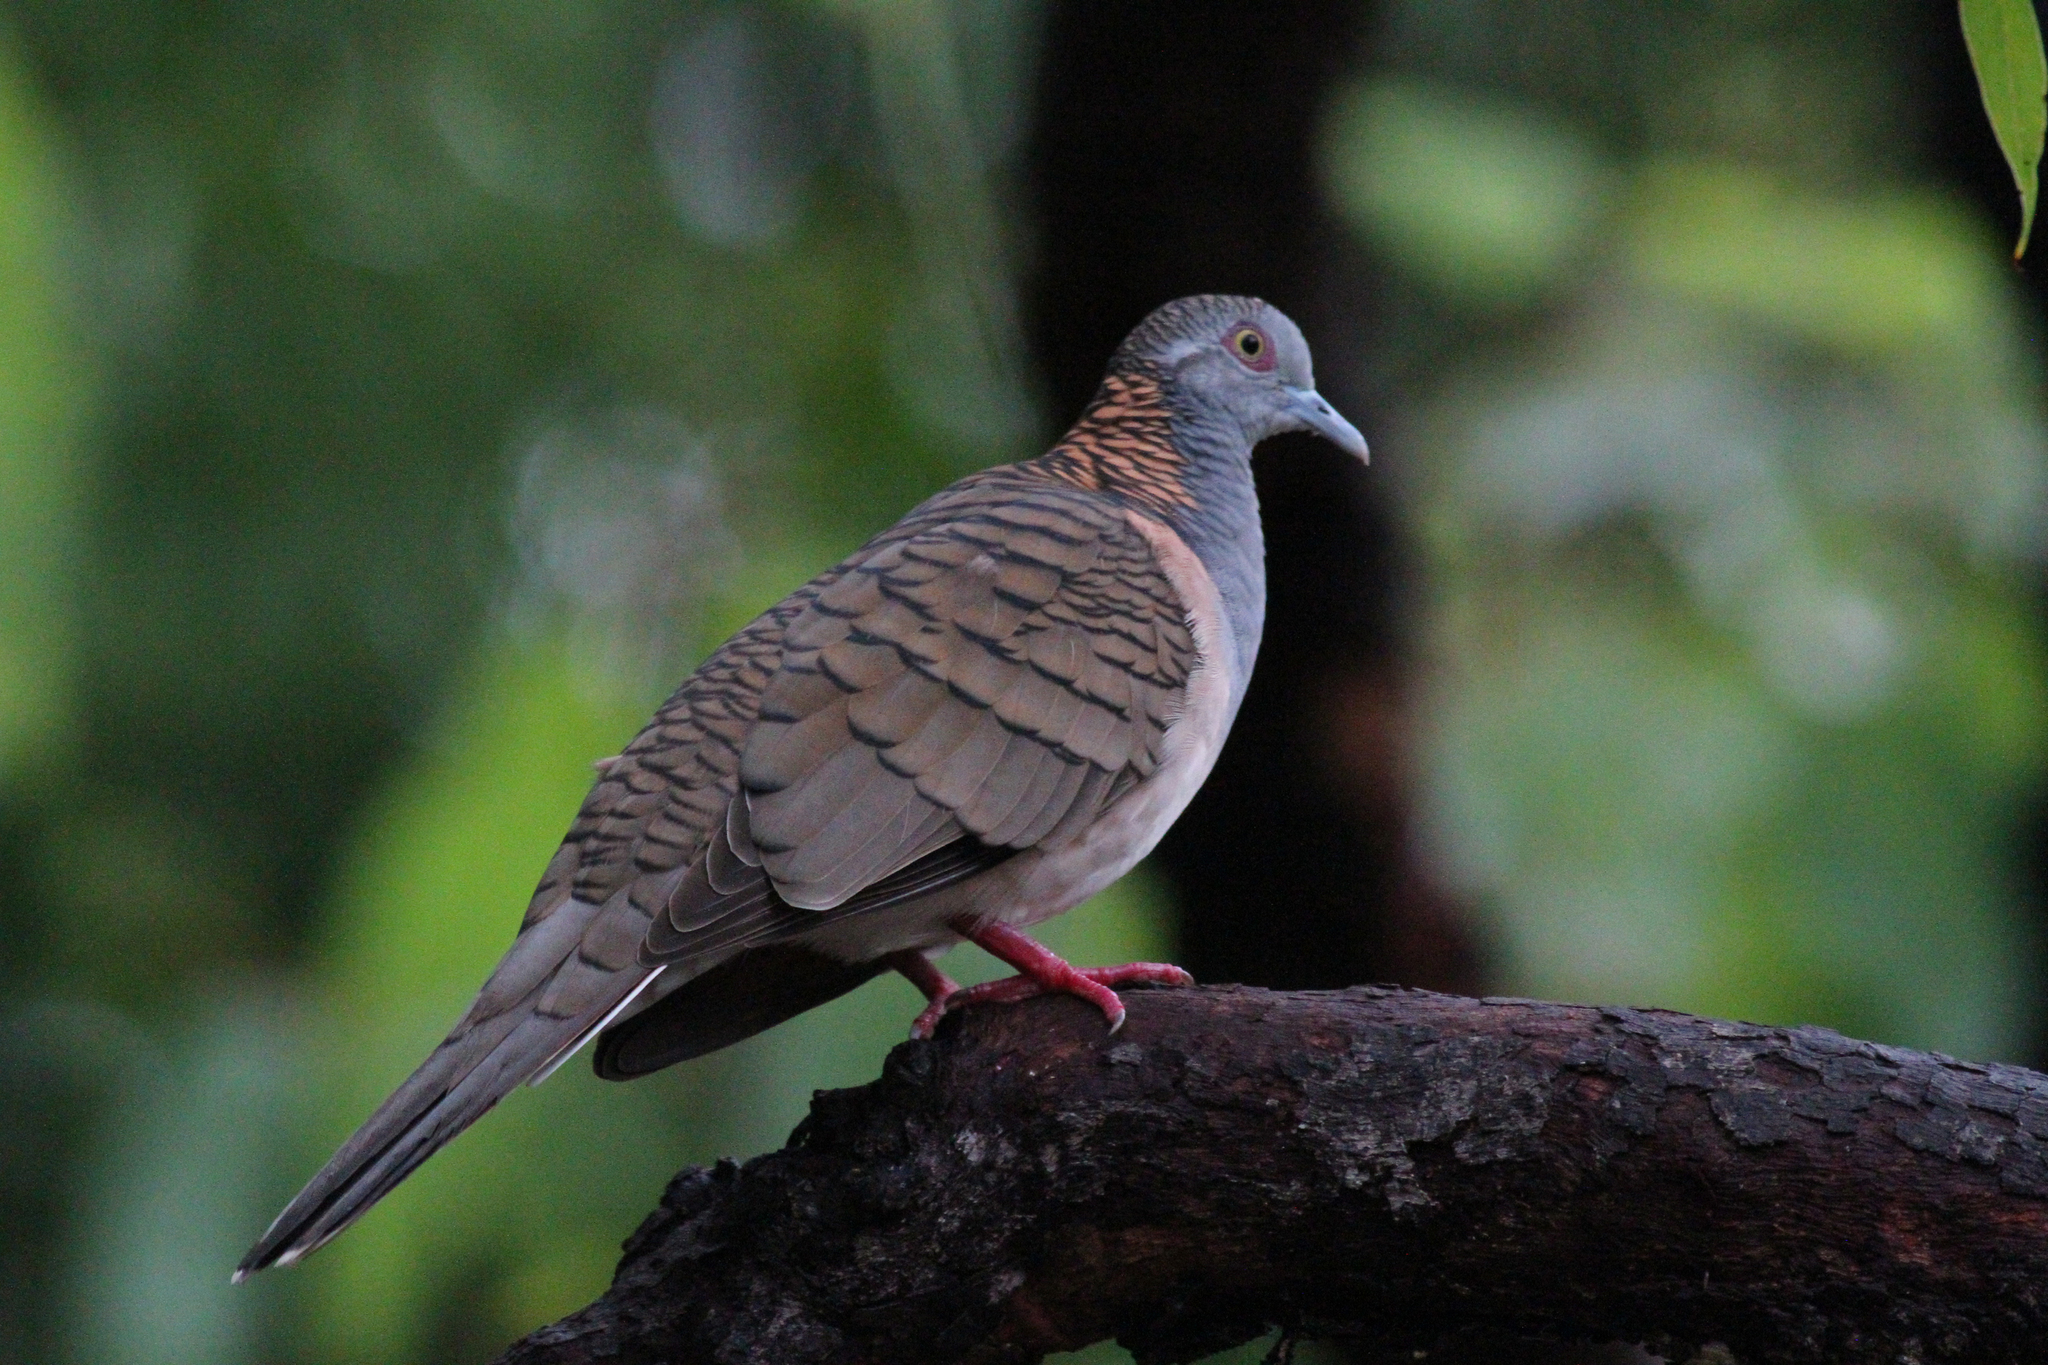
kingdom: Animalia
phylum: Chordata
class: Aves
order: Columbiformes
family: Columbidae
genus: Geopelia
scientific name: Geopelia humeralis
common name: Bar-shouldered dove
